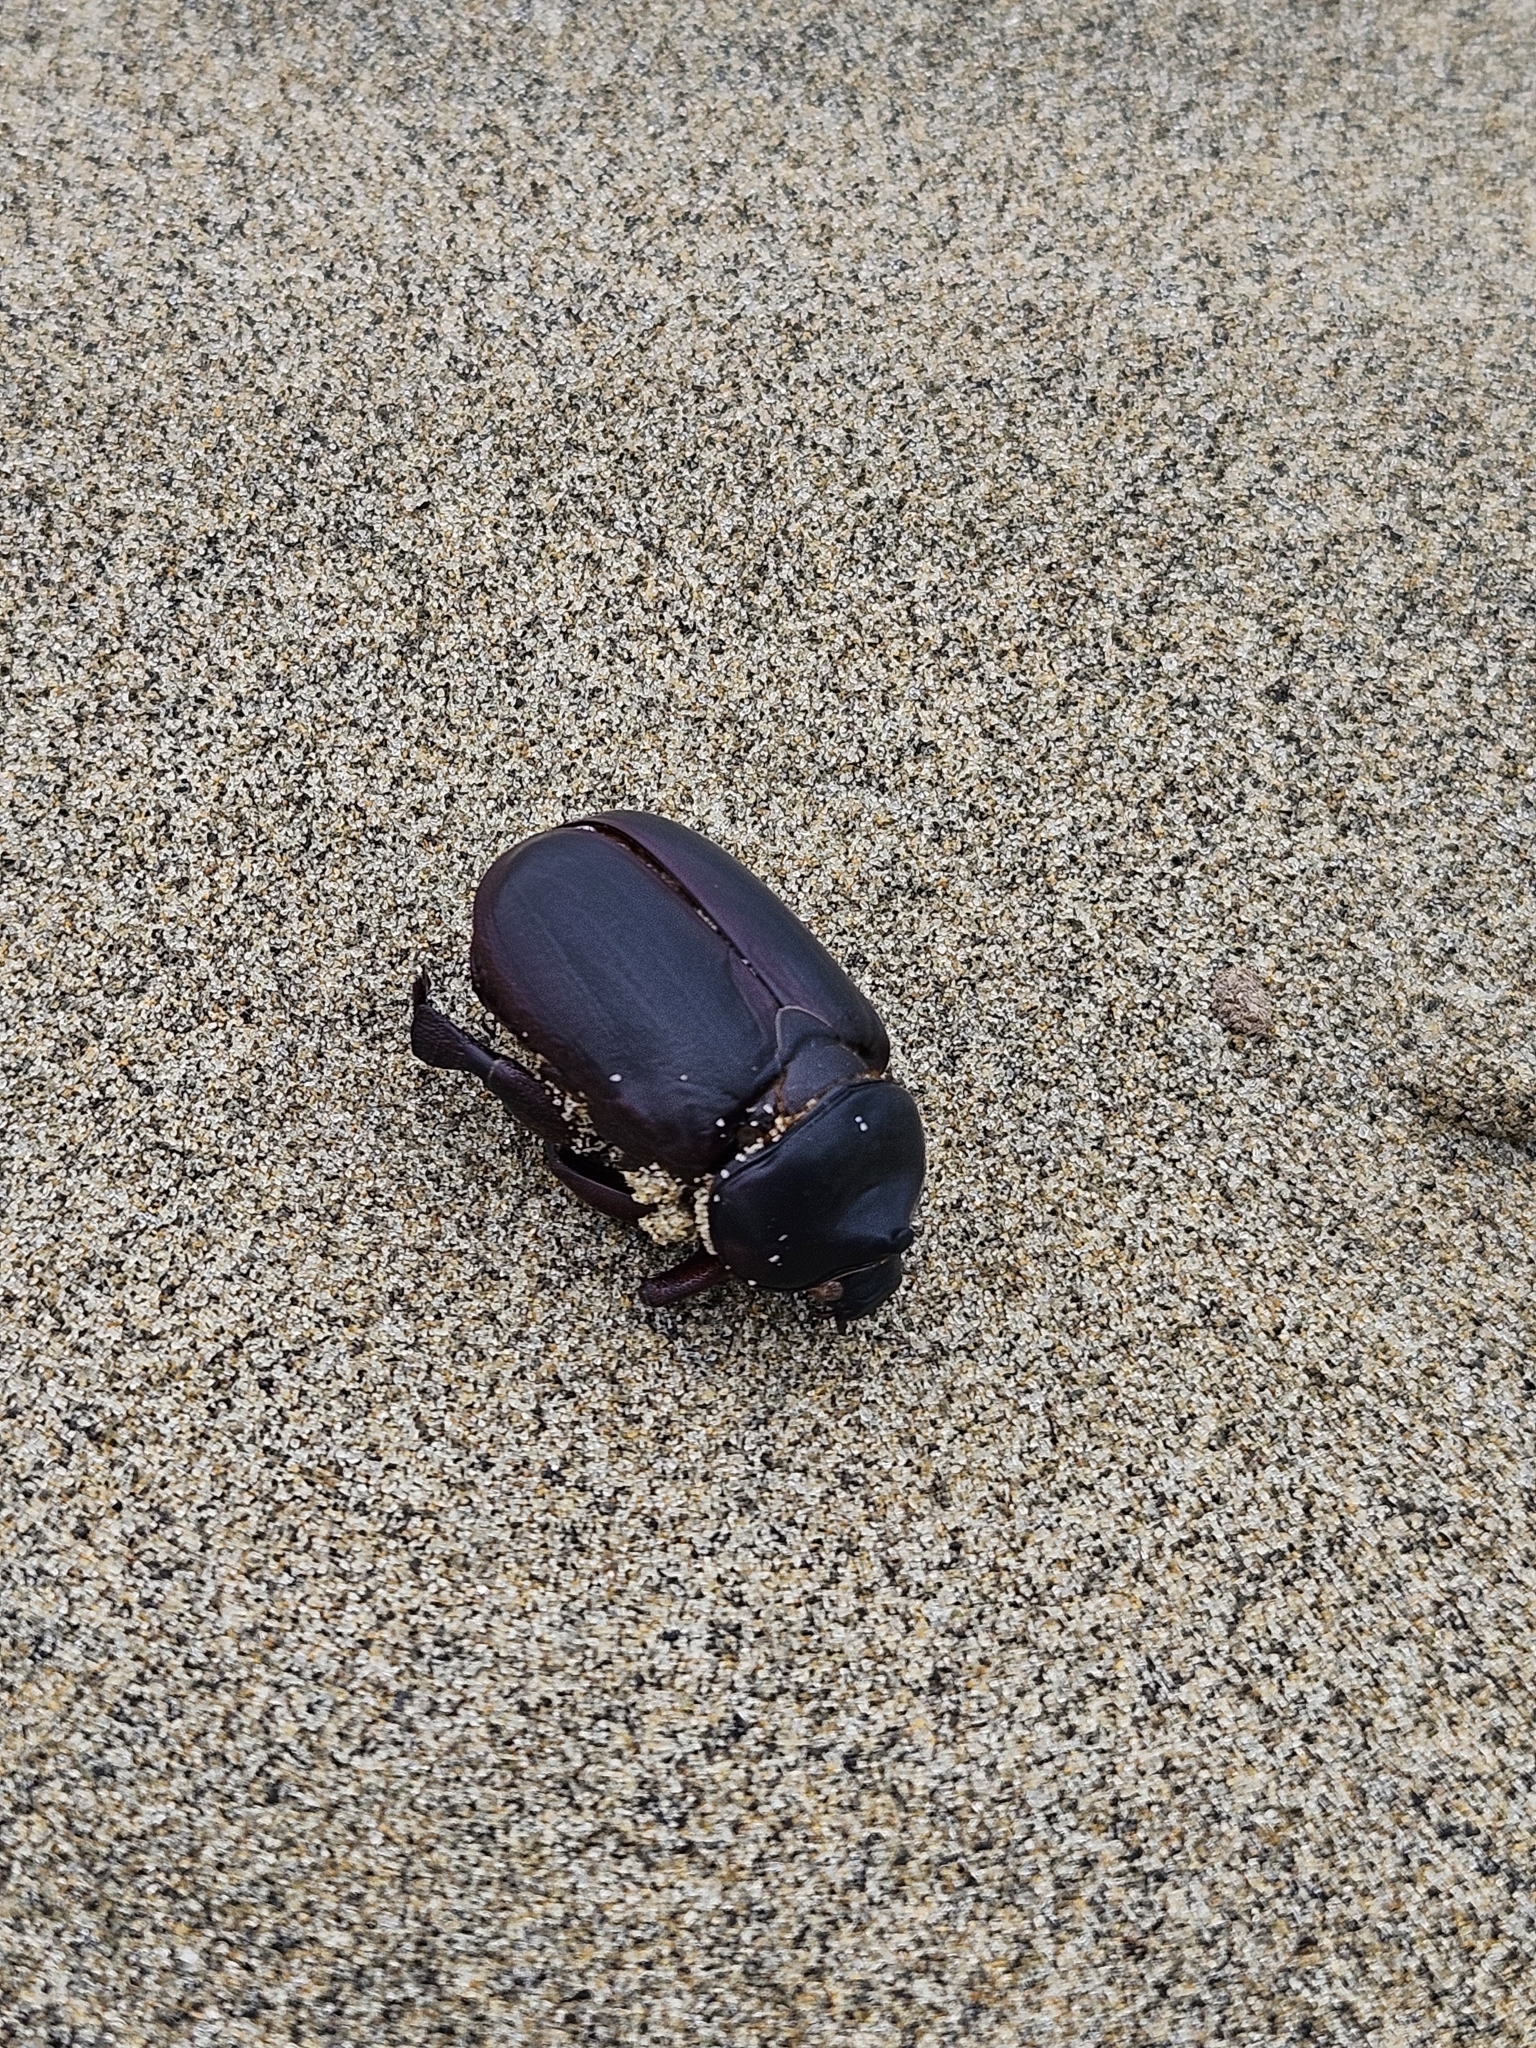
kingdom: Animalia
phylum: Arthropoda
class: Insecta
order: Coleoptera
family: Scarabaeidae
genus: Pericoptus
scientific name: Pericoptus truncatus
